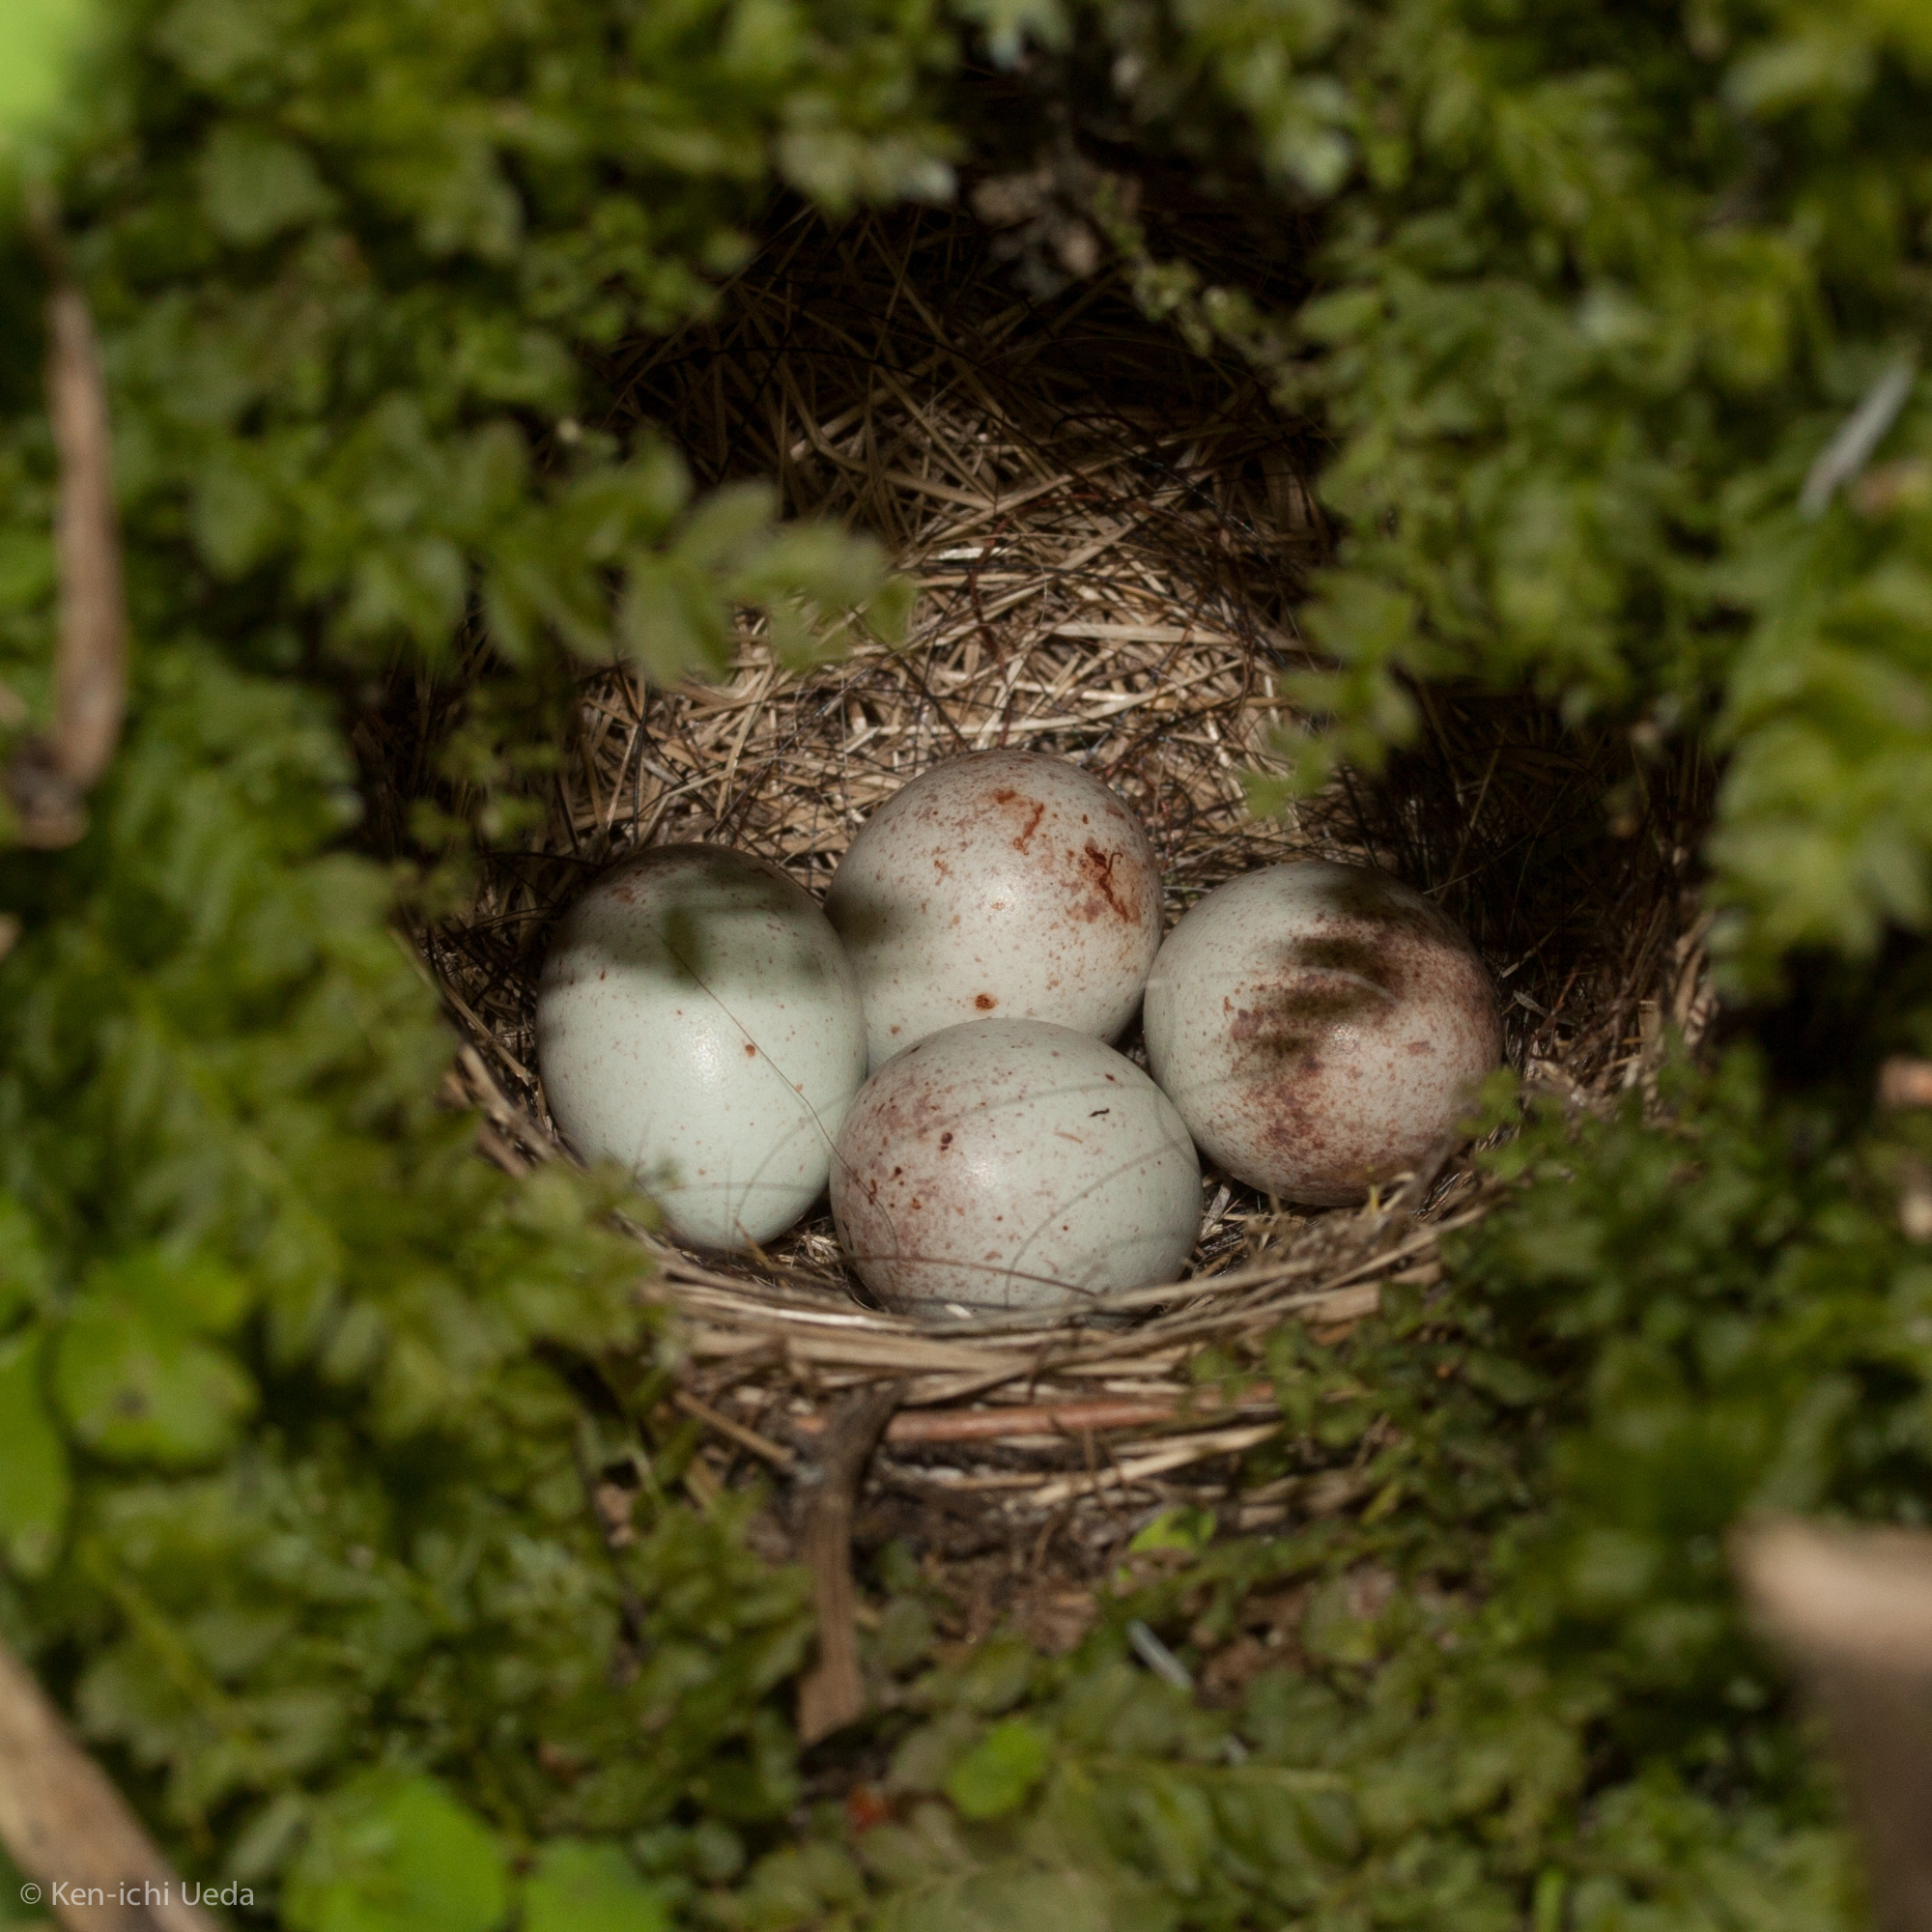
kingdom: Animalia
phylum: Chordata
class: Aves
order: Passeriformes
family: Passerellidae
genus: Junco
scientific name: Junco hyemalis
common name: Dark-eyed junco
